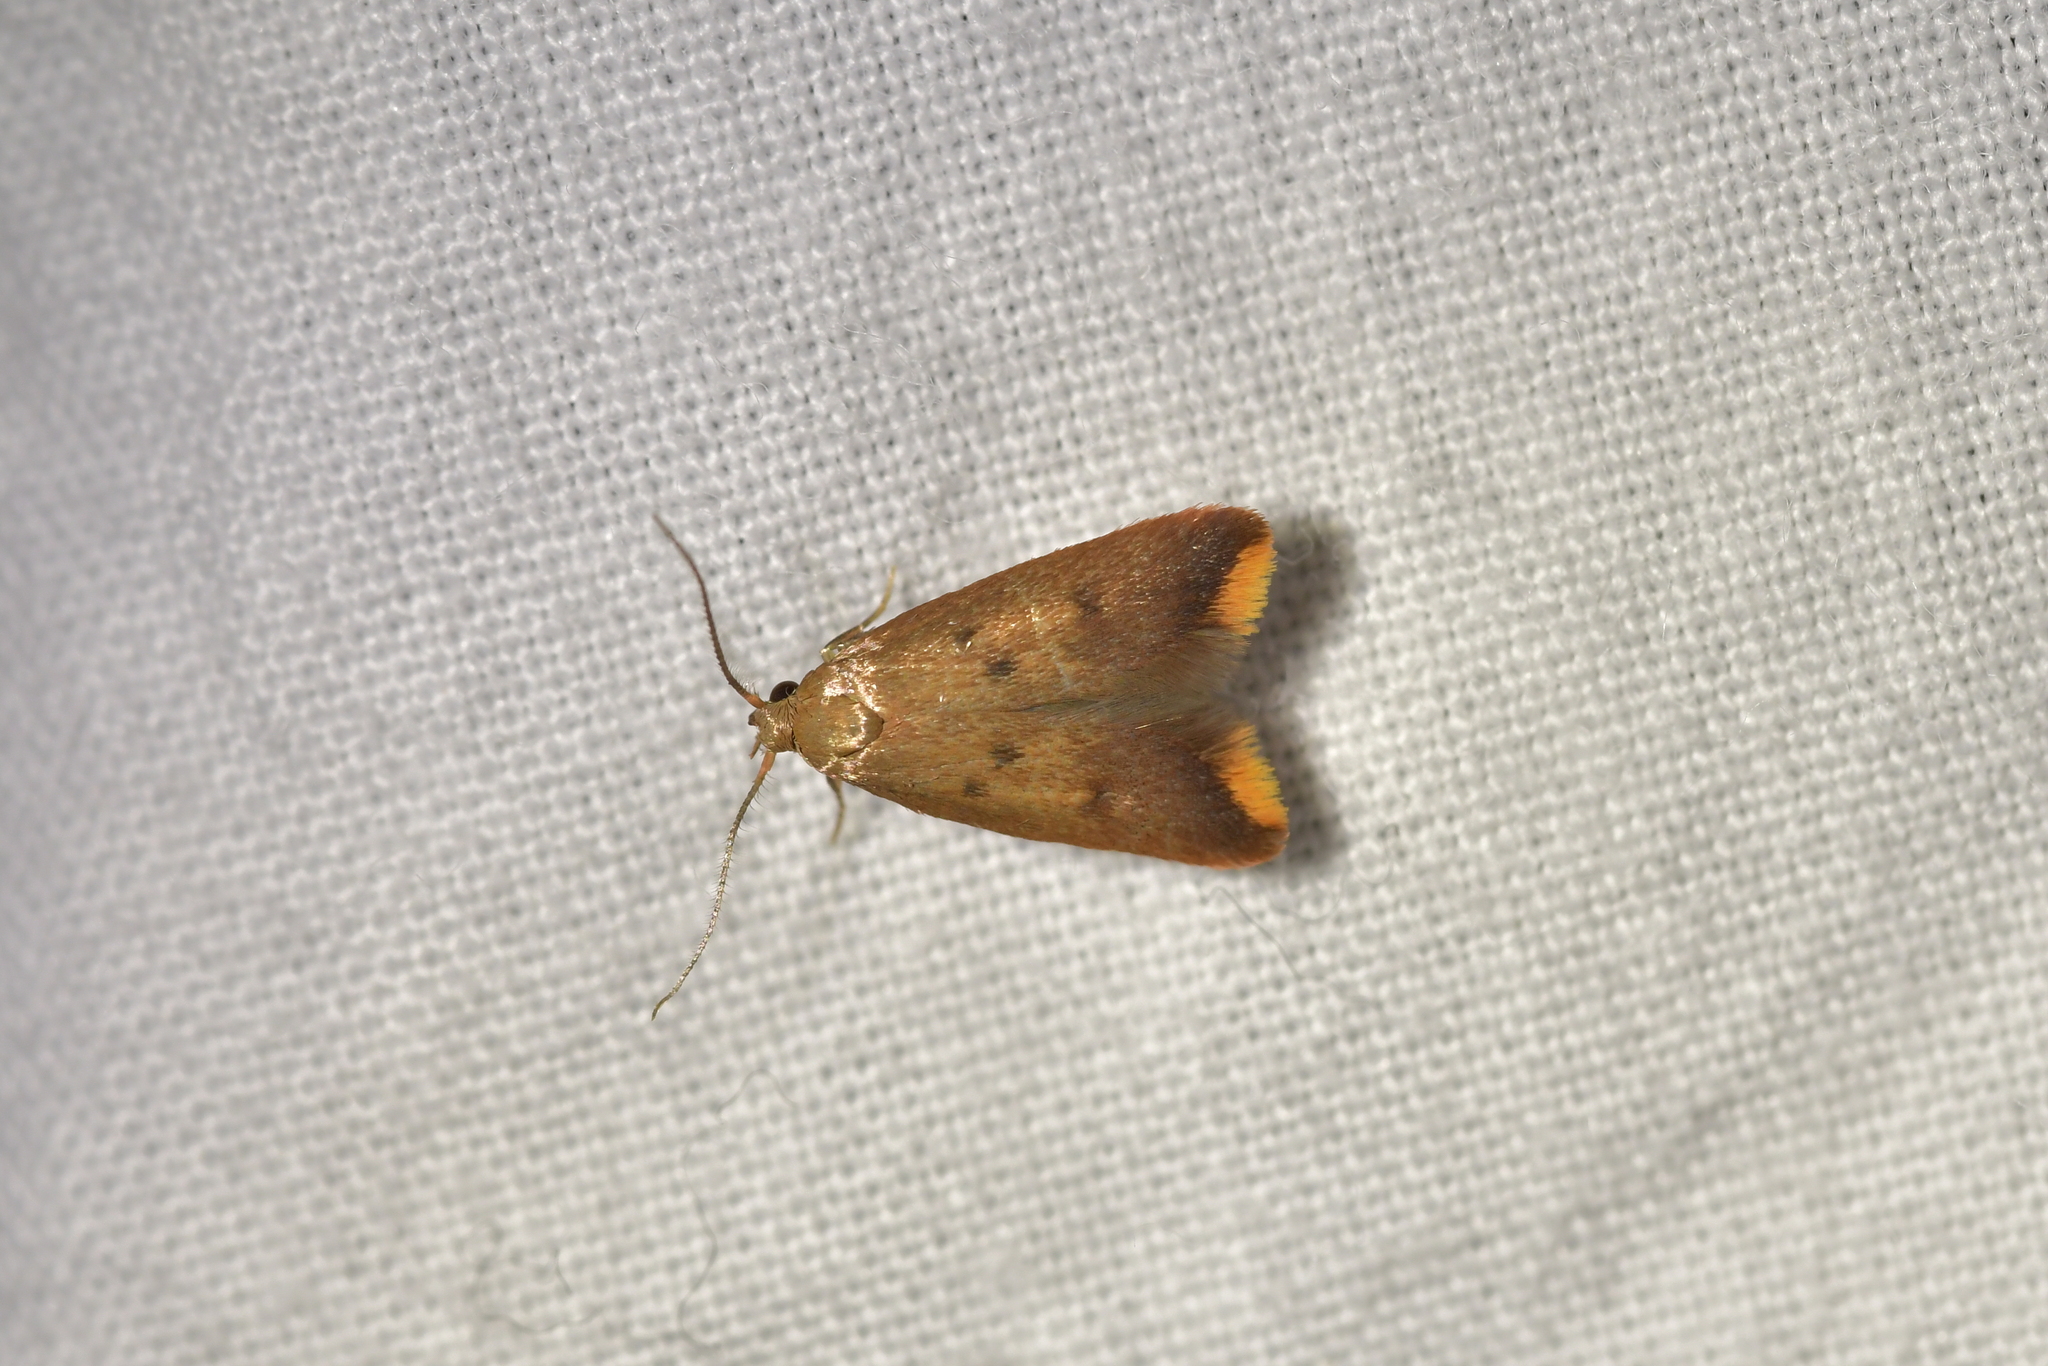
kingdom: Animalia
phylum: Arthropoda
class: Insecta
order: Lepidoptera
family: Oecophoridae
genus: Tachystola
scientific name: Tachystola acroxantha
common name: Ruddy streak
